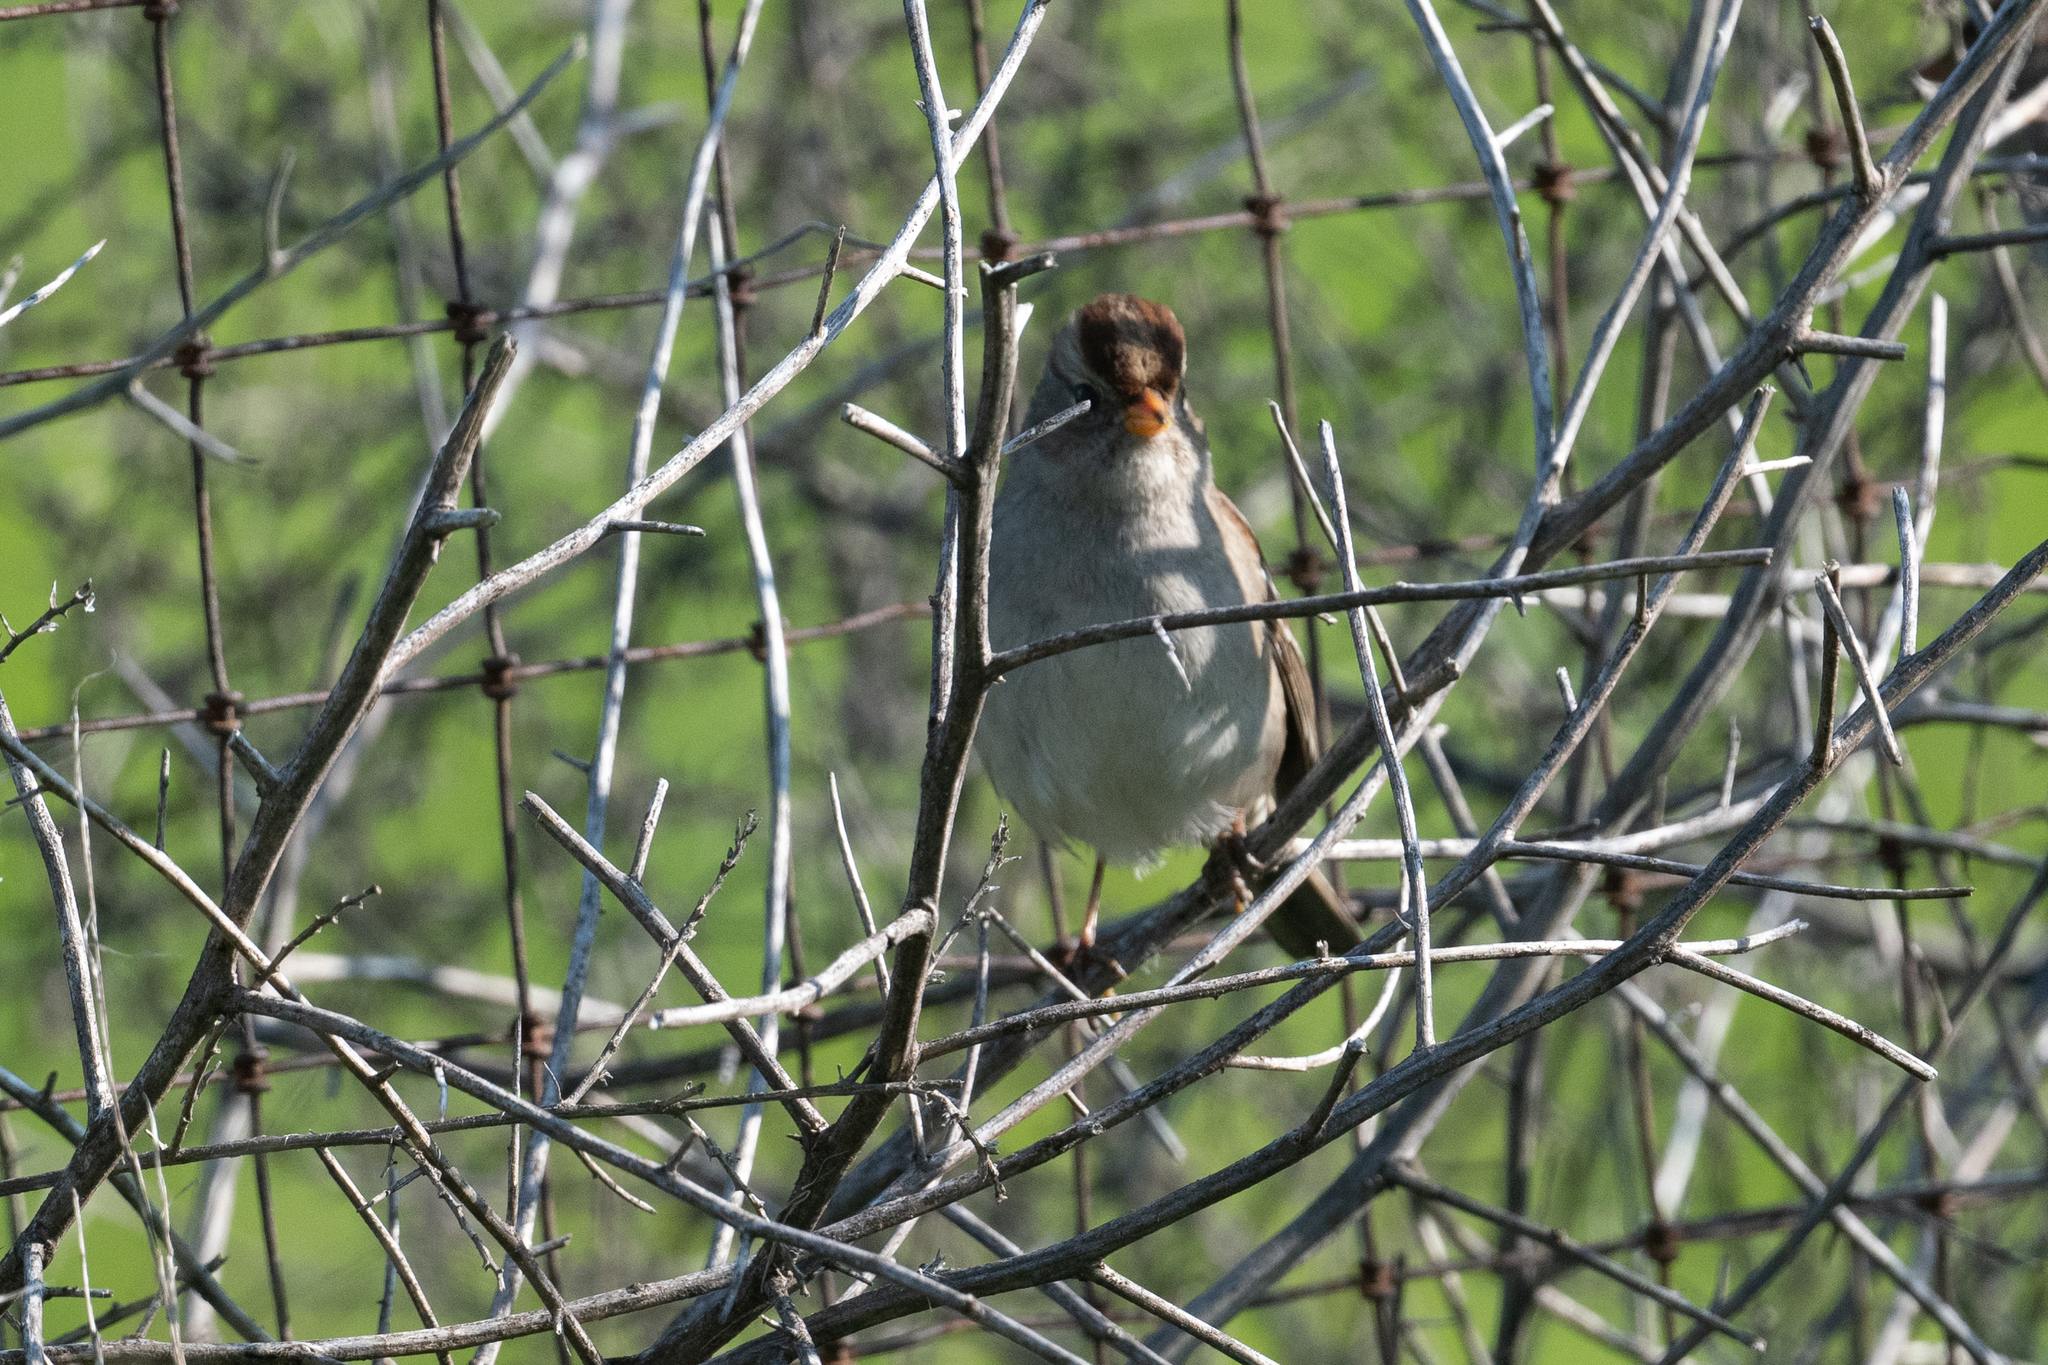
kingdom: Animalia
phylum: Chordata
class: Aves
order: Passeriformes
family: Passerellidae
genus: Zonotrichia
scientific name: Zonotrichia leucophrys
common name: White-crowned sparrow
